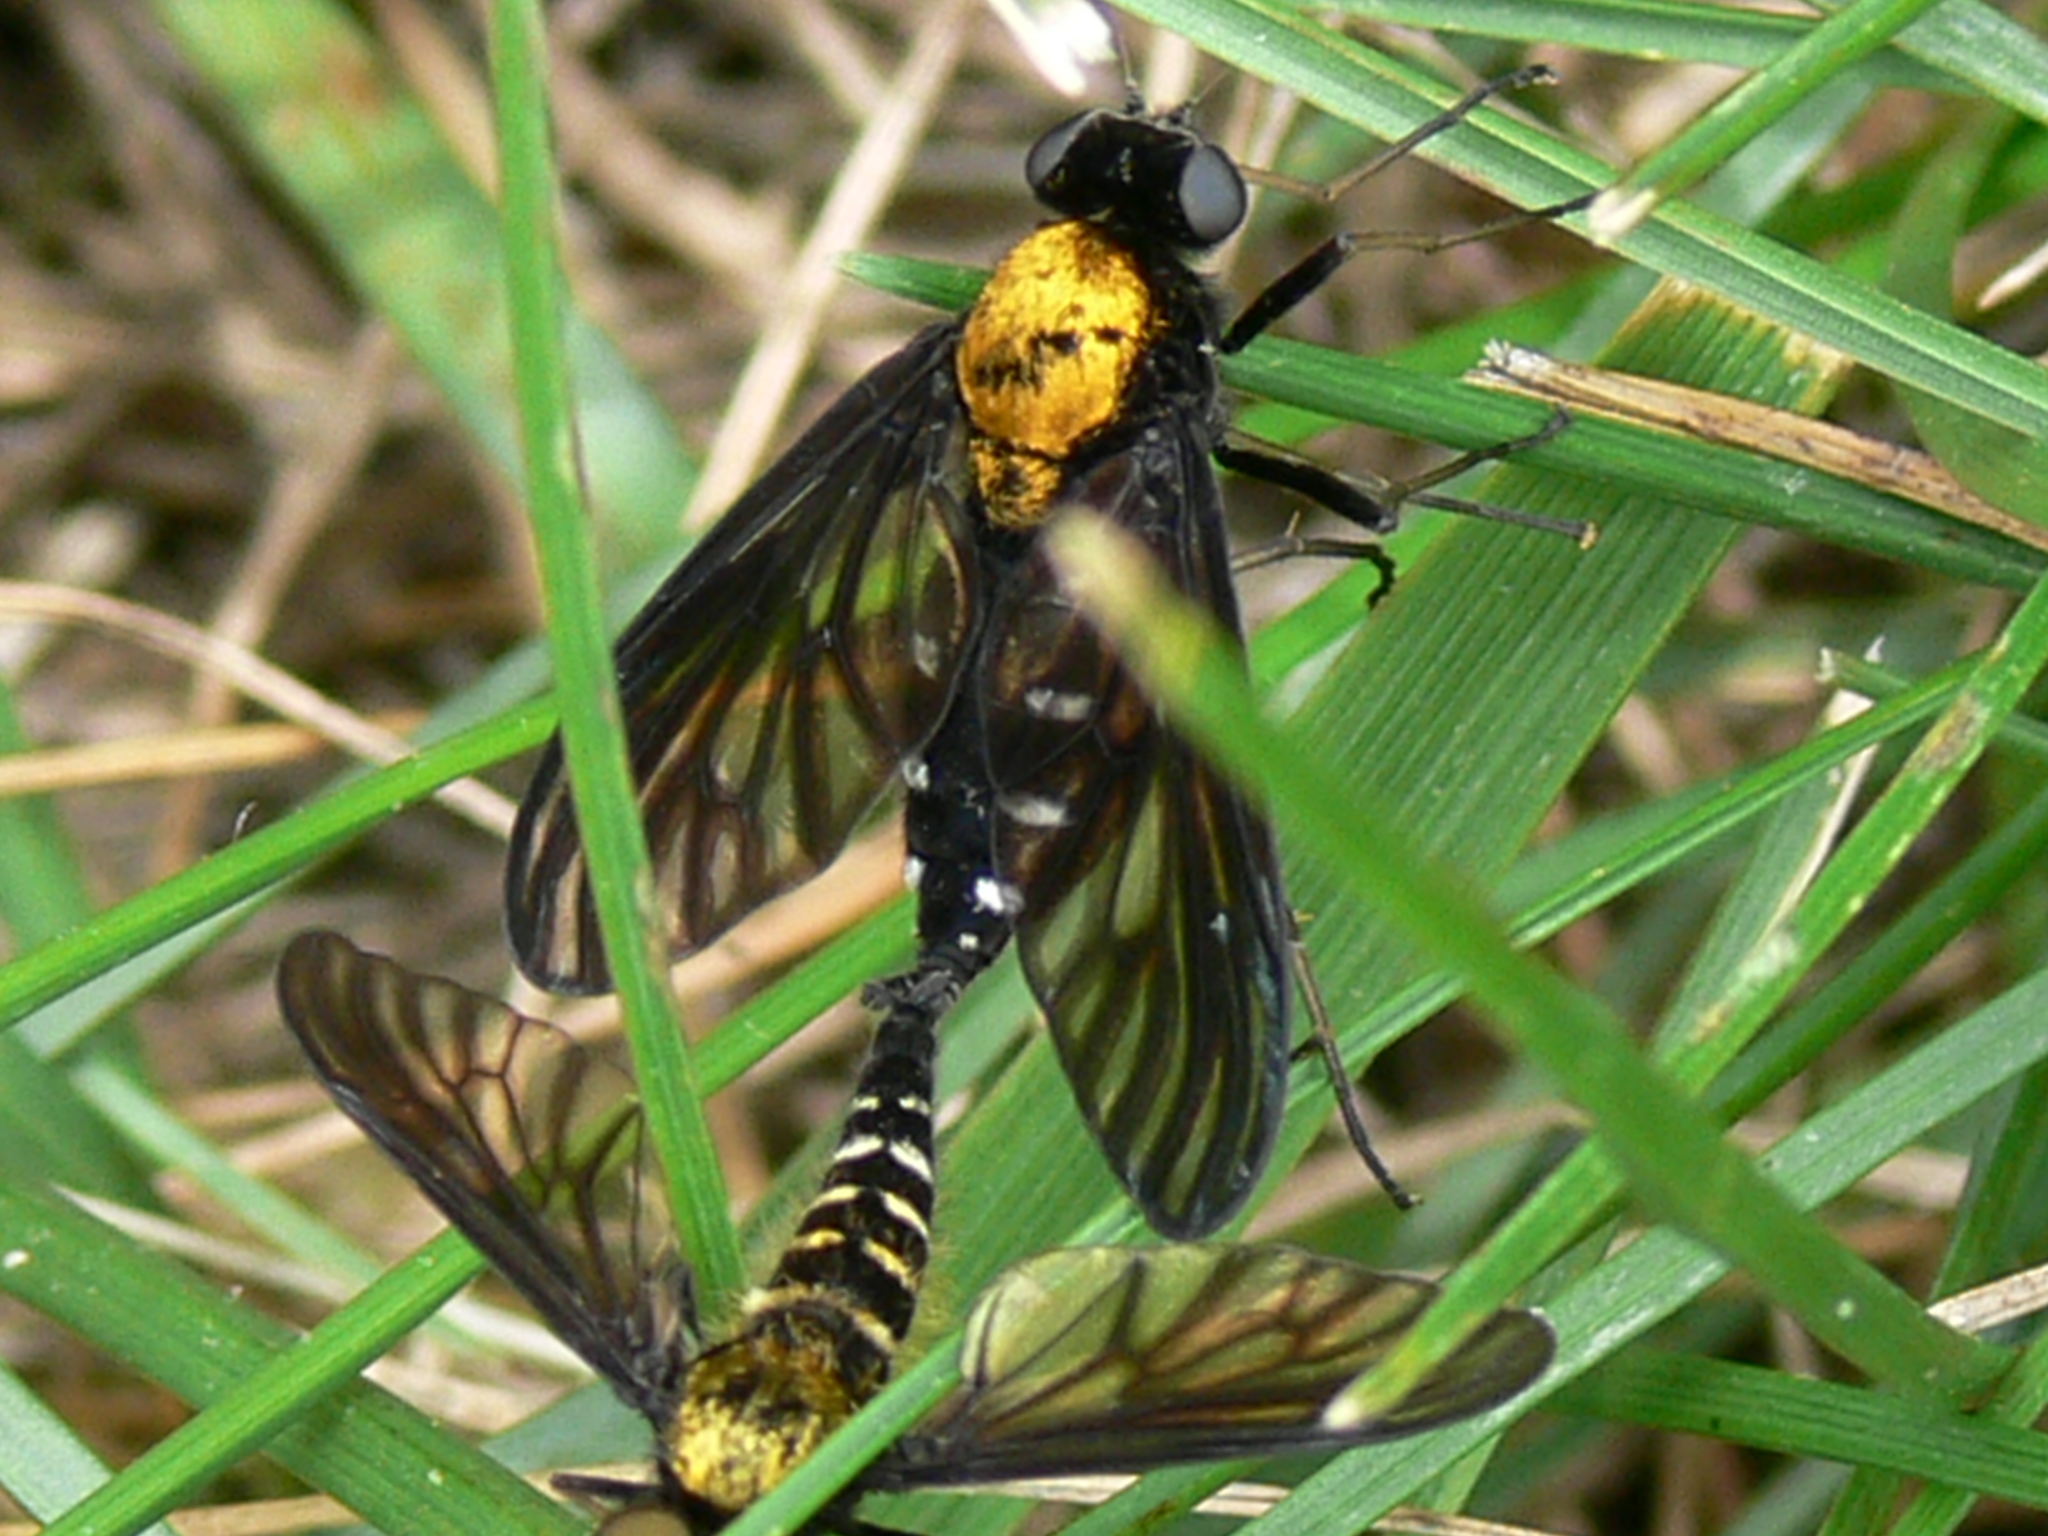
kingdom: Animalia
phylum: Arthropoda
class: Insecta
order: Diptera
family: Rhagionidae
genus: Chrysopilus
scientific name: Chrysopilus thoracicus
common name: Golden-backed snipe fly
